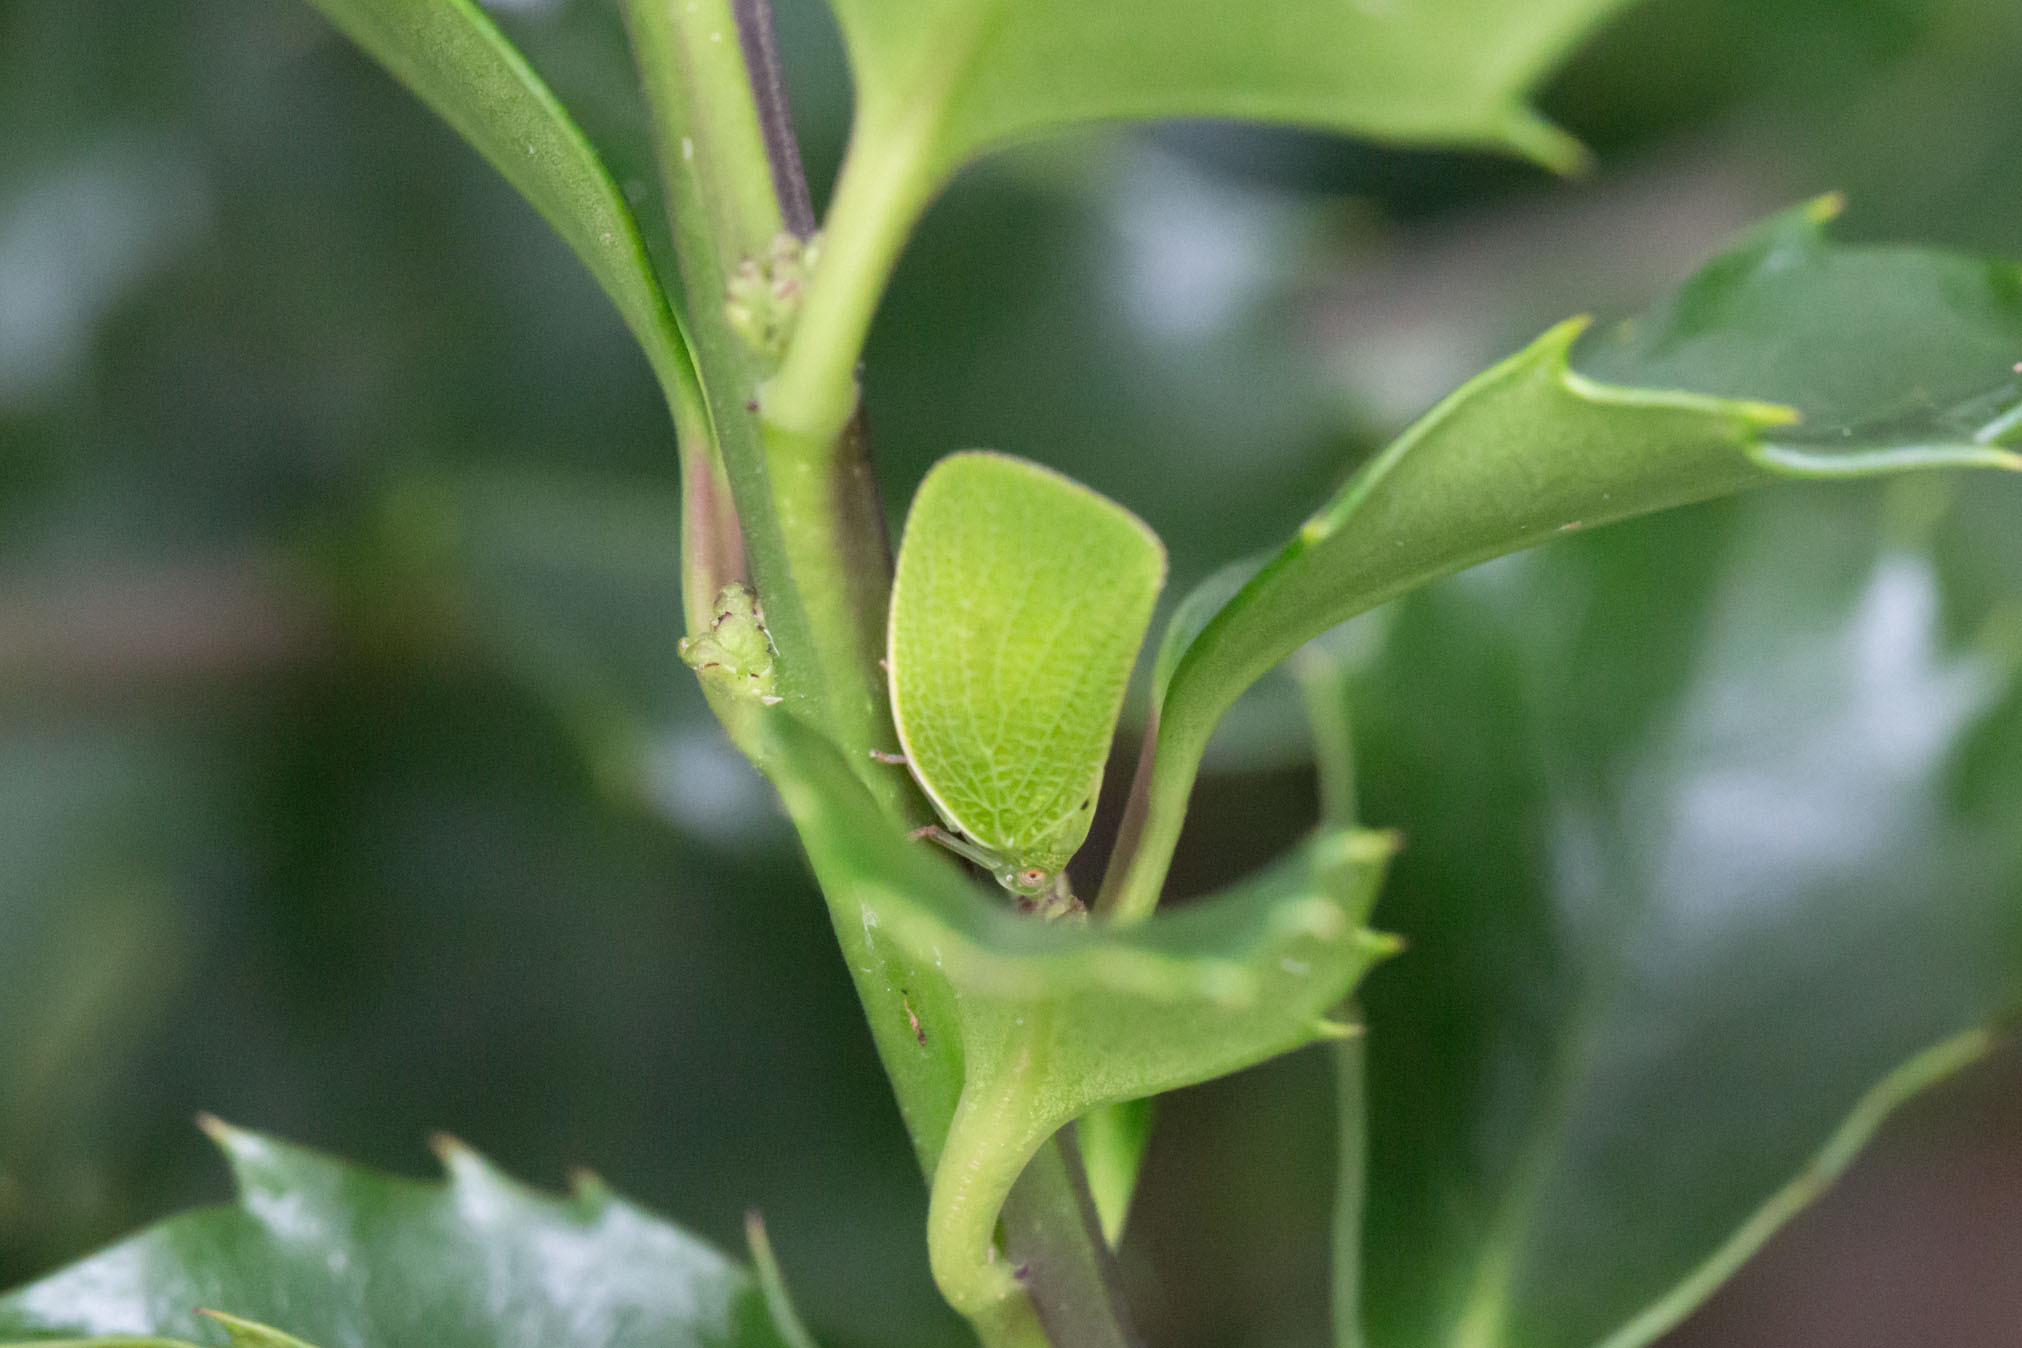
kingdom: Animalia
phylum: Arthropoda
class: Insecta
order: Hemiptera
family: Acanaloniidae
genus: Acanalonia
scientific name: Acanalonia conica
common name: Green cone-headed planthopper
